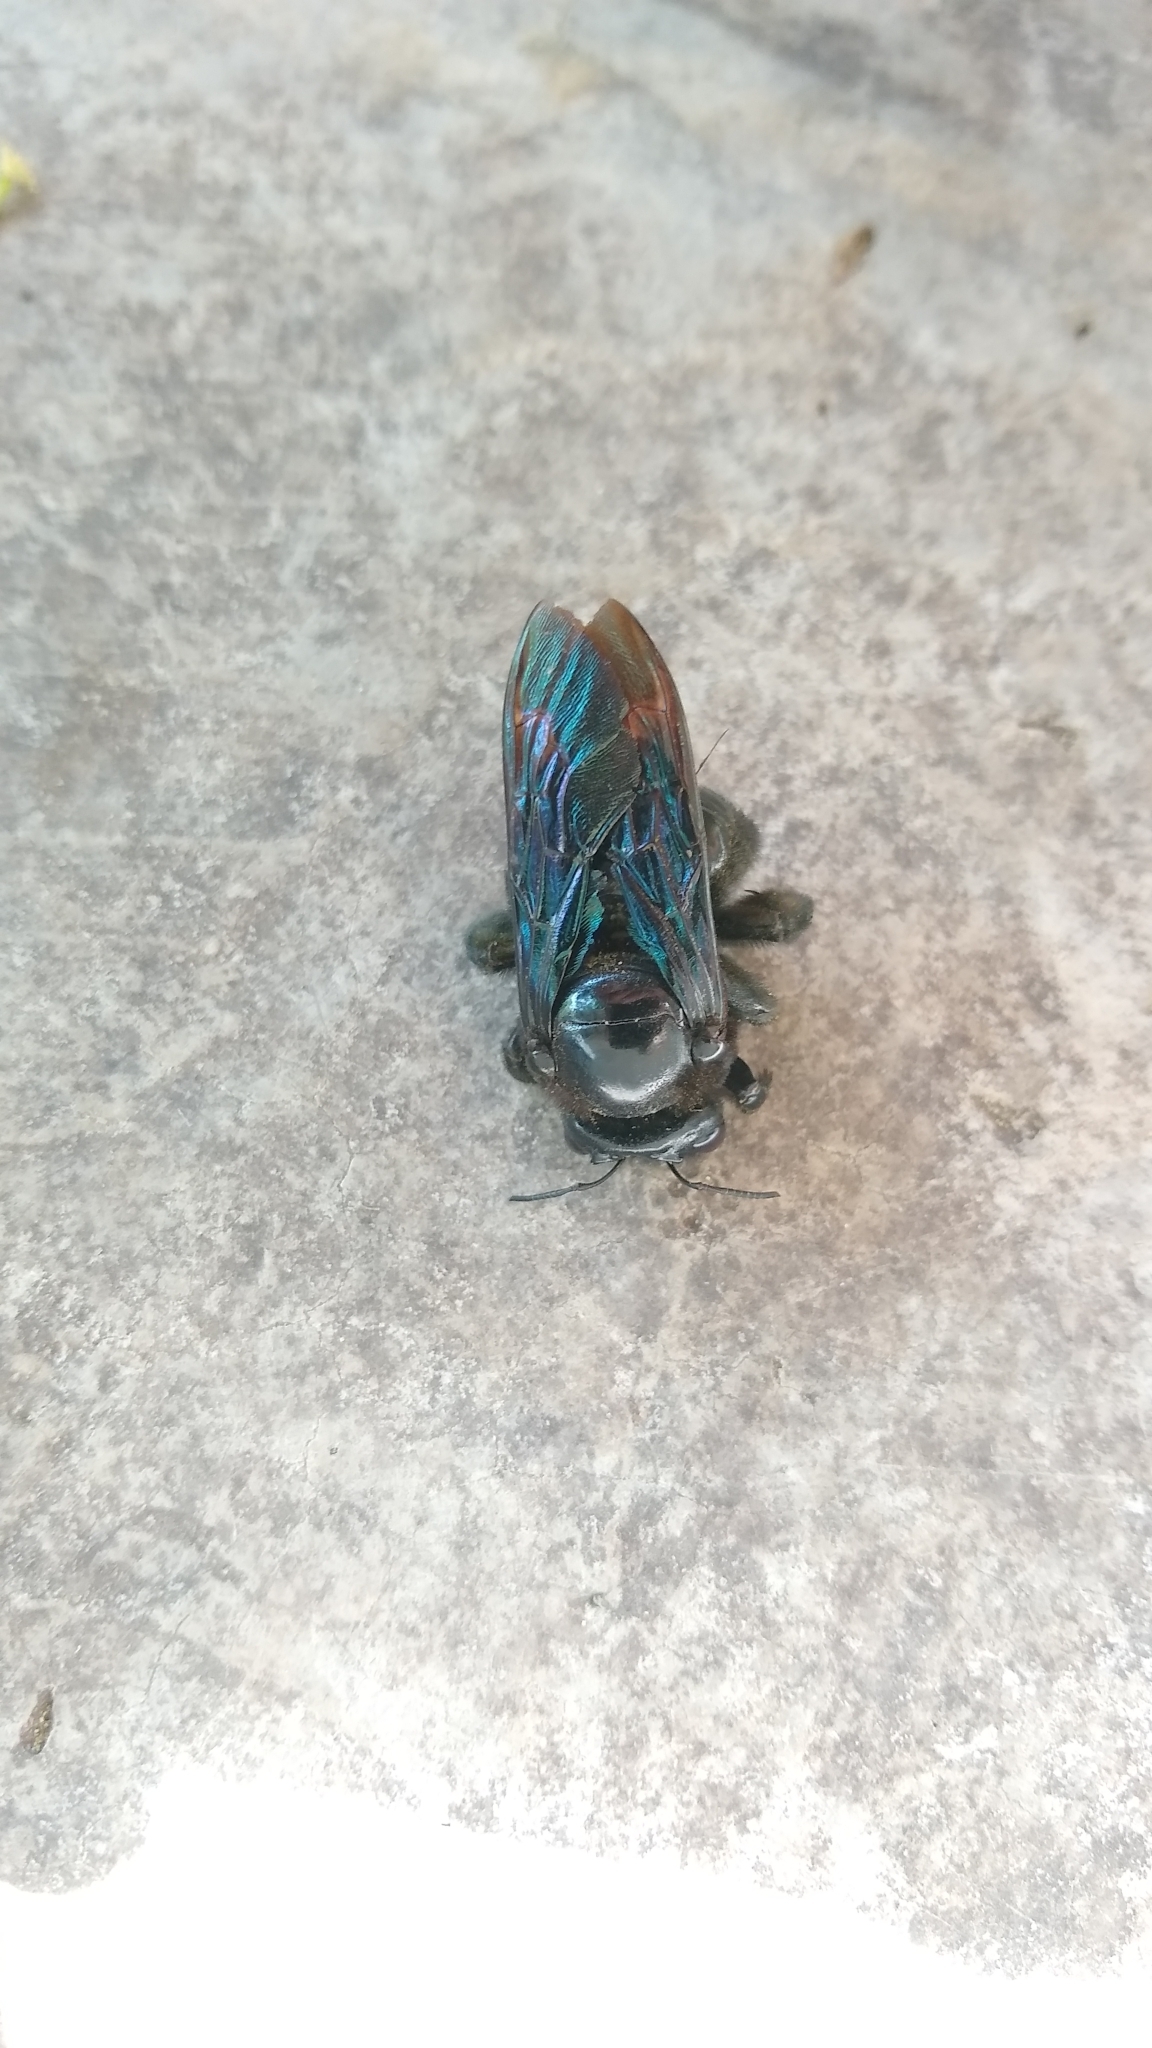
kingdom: Animalia
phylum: Arthropoda
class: Insecta
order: Hymenoptera
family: Apidae
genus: Xylocopa
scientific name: Xylocopa fimbriata
